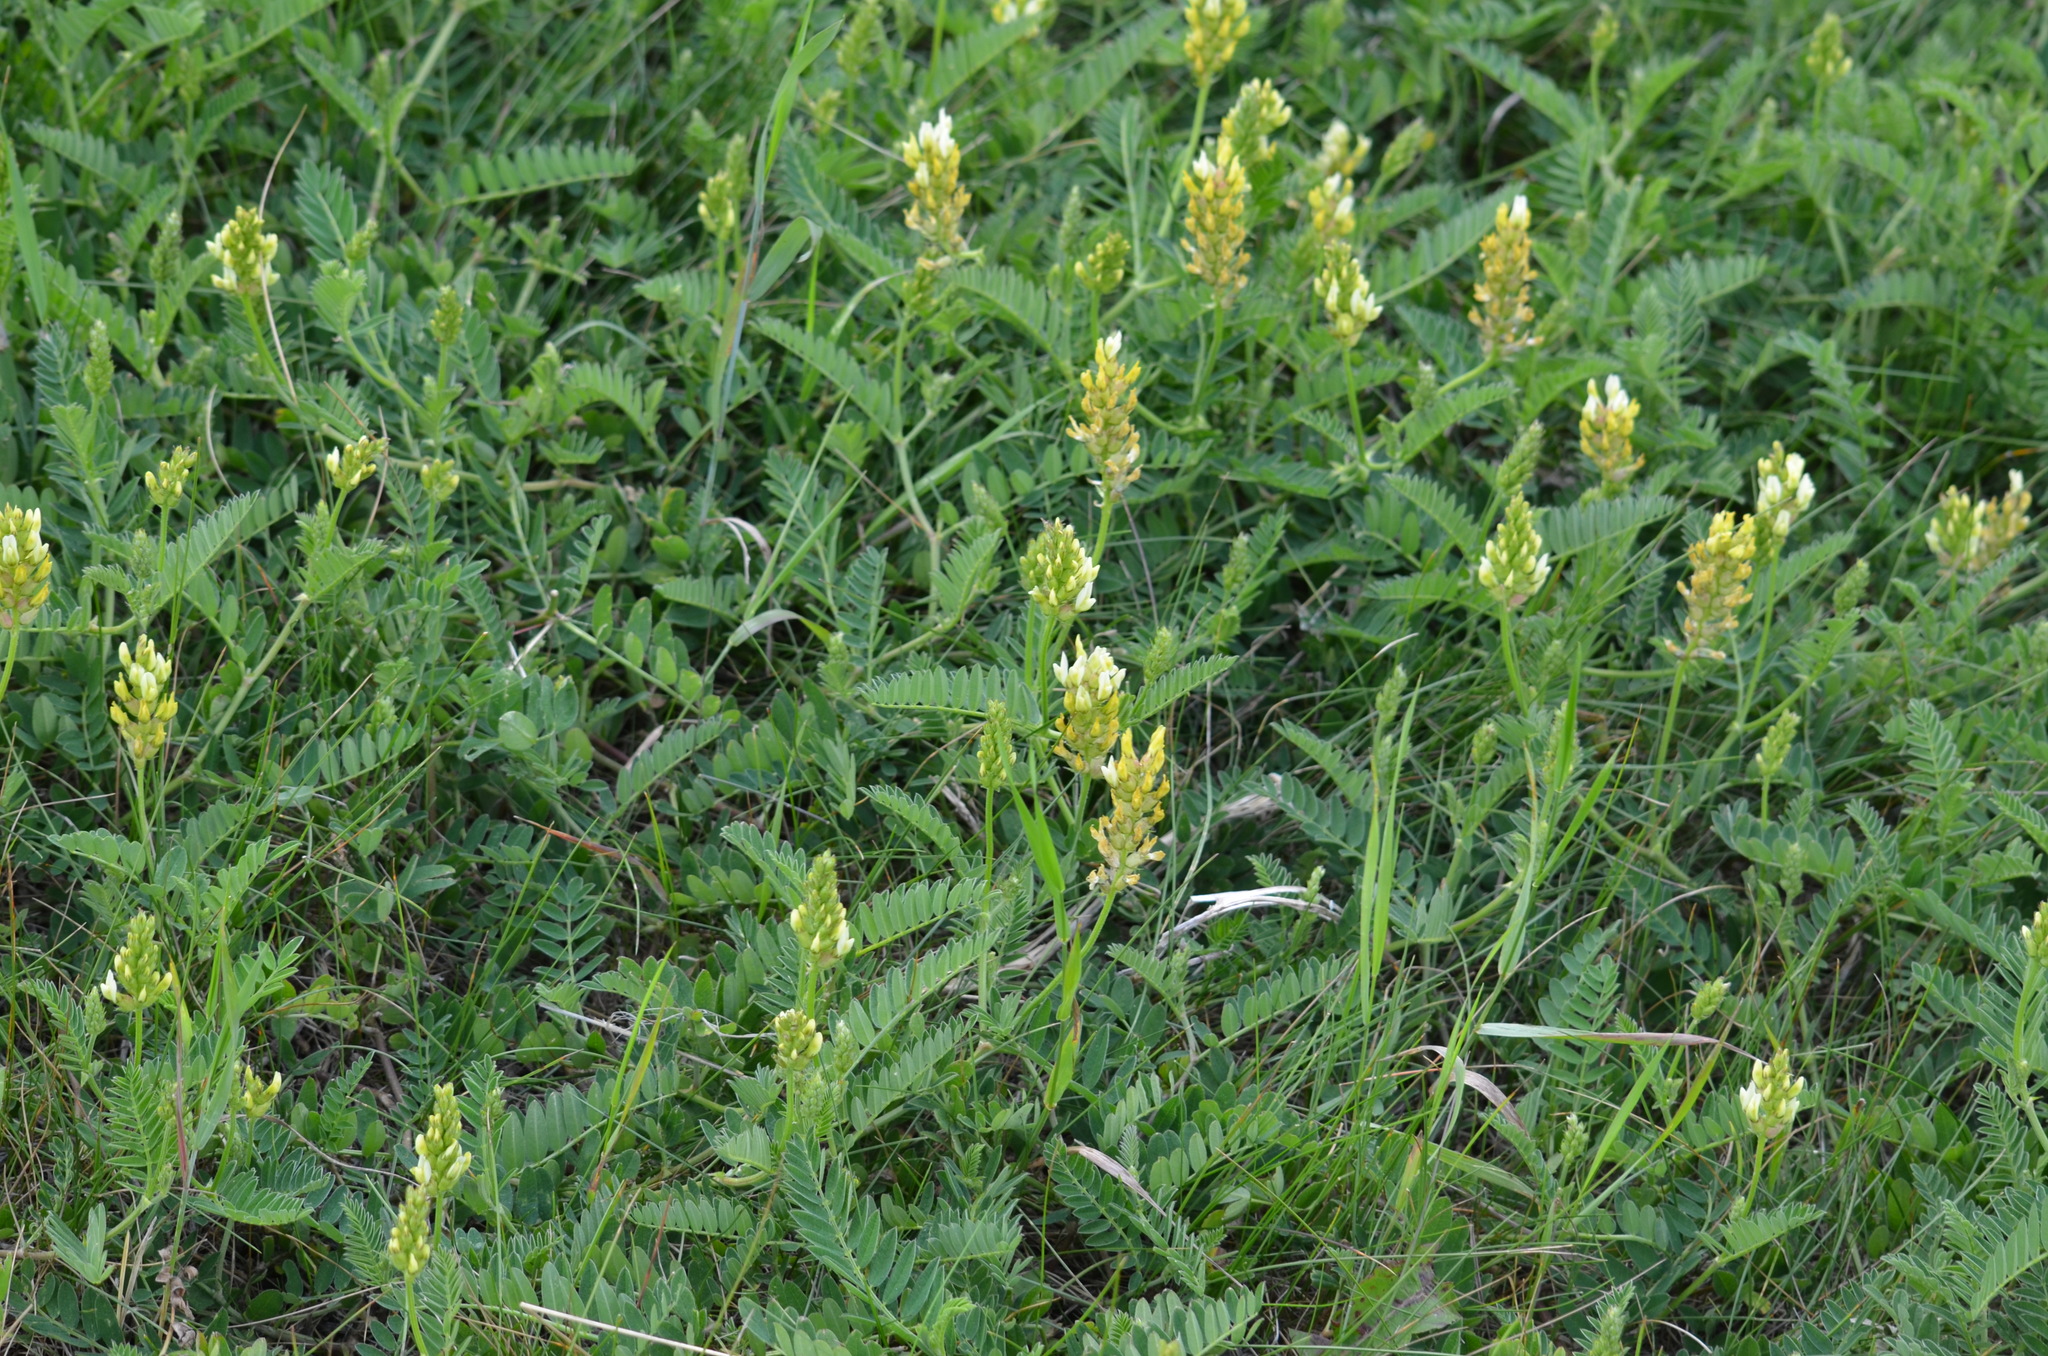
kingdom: Plantae
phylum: Tracheophyta
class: Magnoliopsida
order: Fabales
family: Fabaceae
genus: Astragalus
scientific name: Astragalus cicer
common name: Chick-pea milk-vetch
